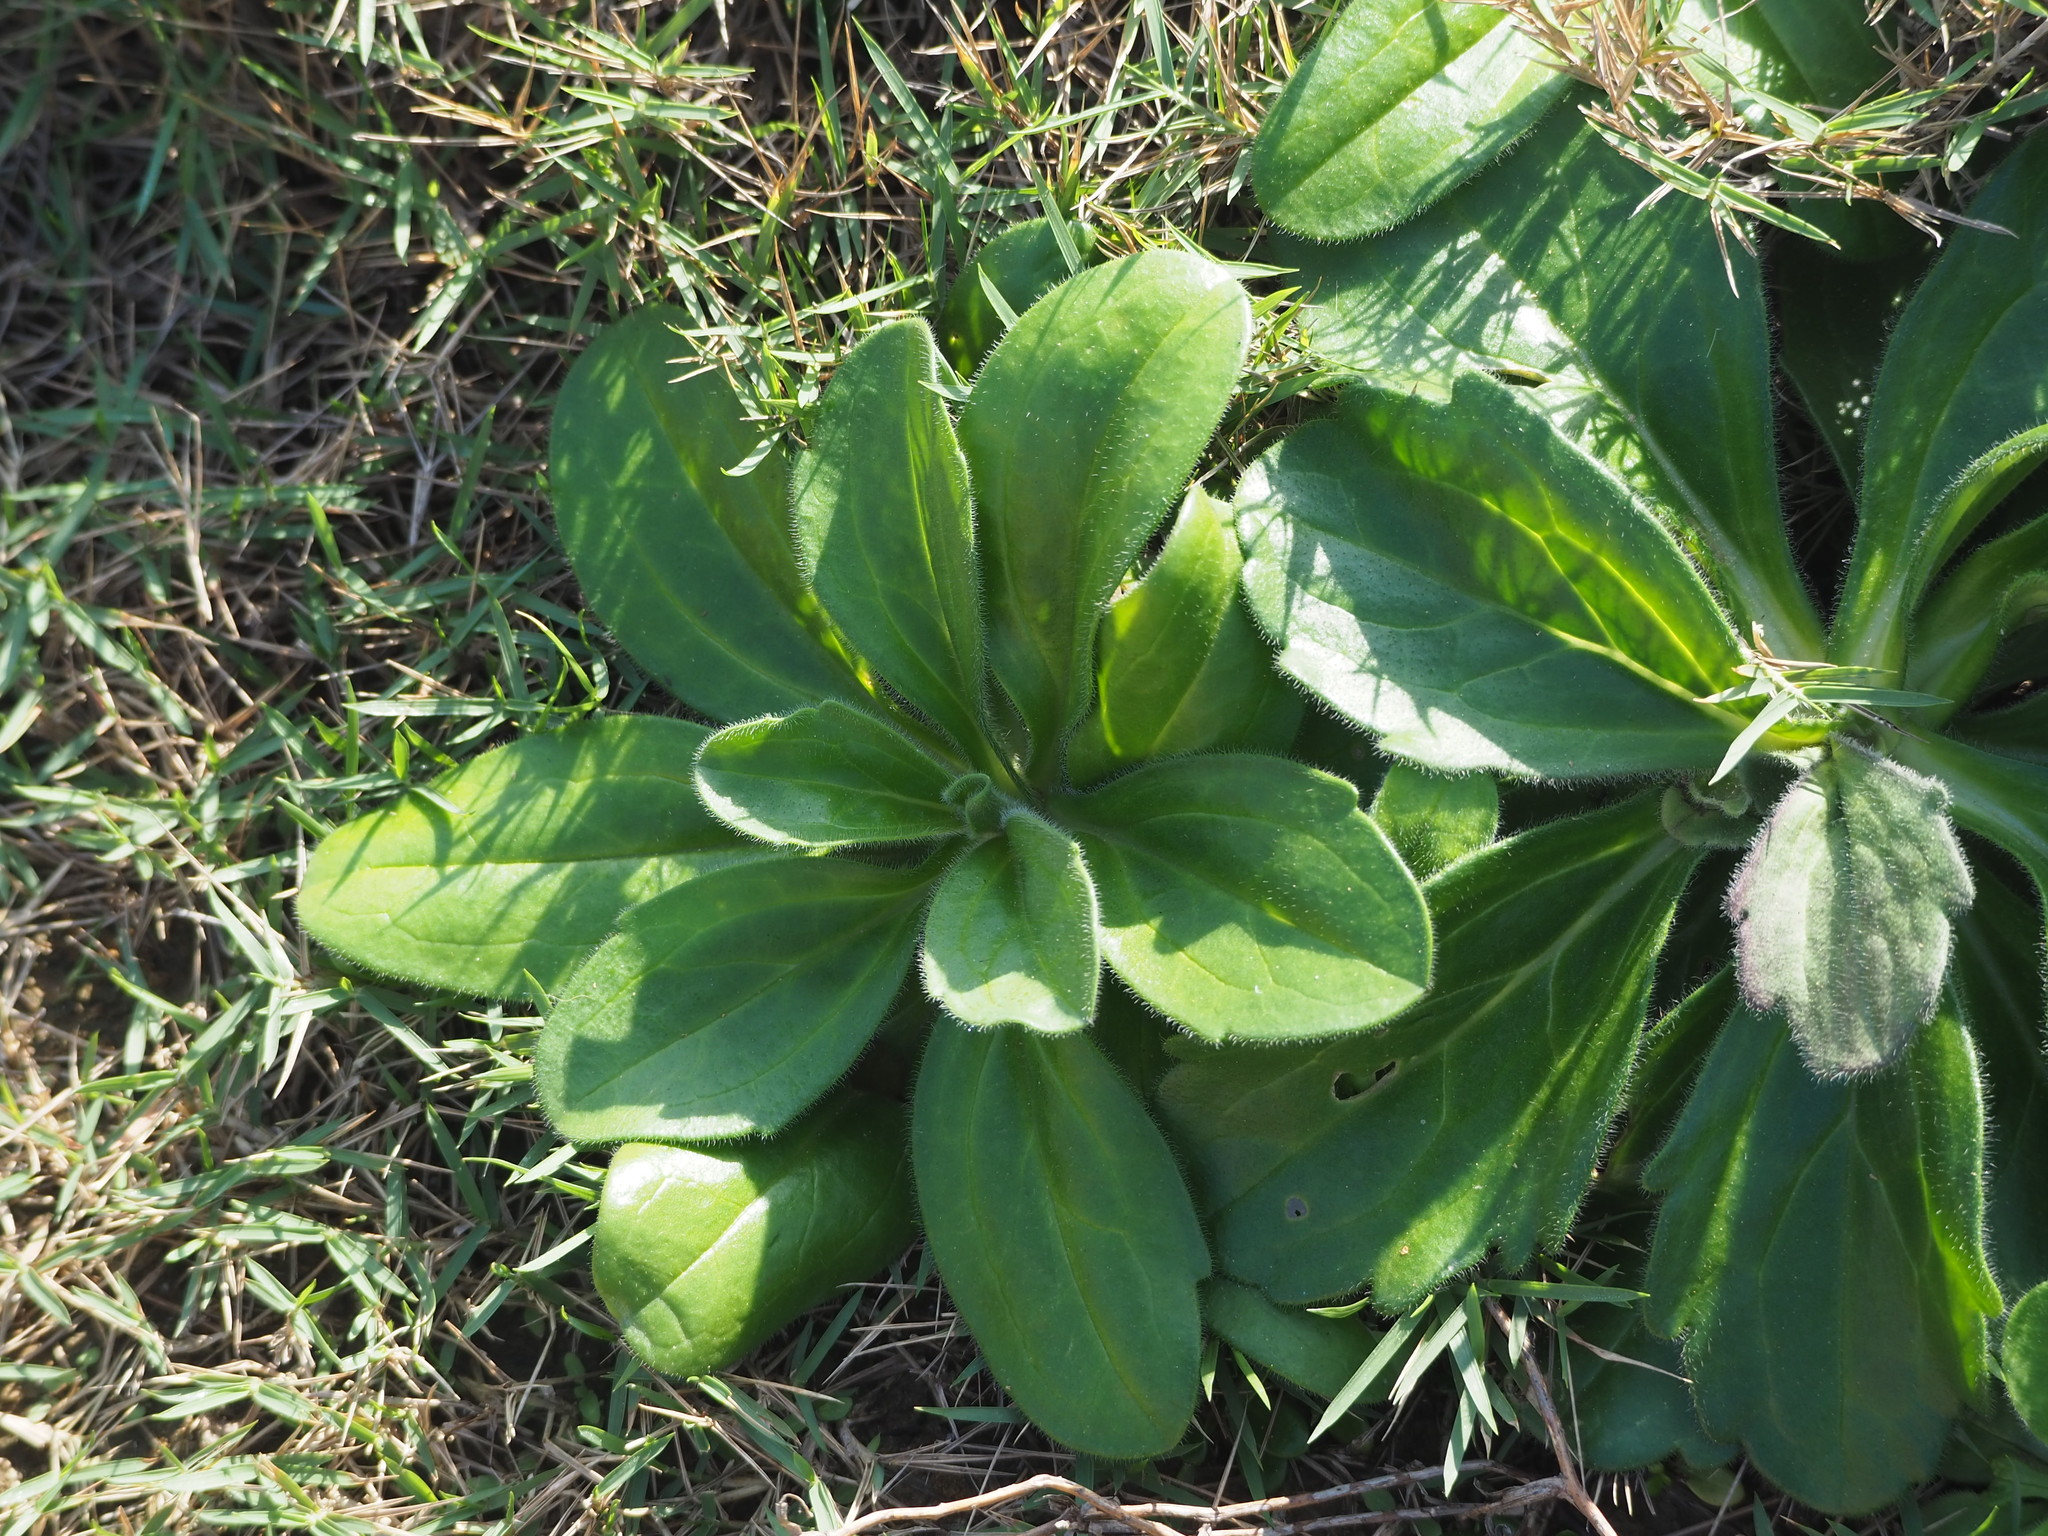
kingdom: Plantae
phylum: Tracheophyta
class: Magnoliopsida
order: Asterales
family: Asteraceae
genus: Heteropappus
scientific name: Heteropappus oldhamii
